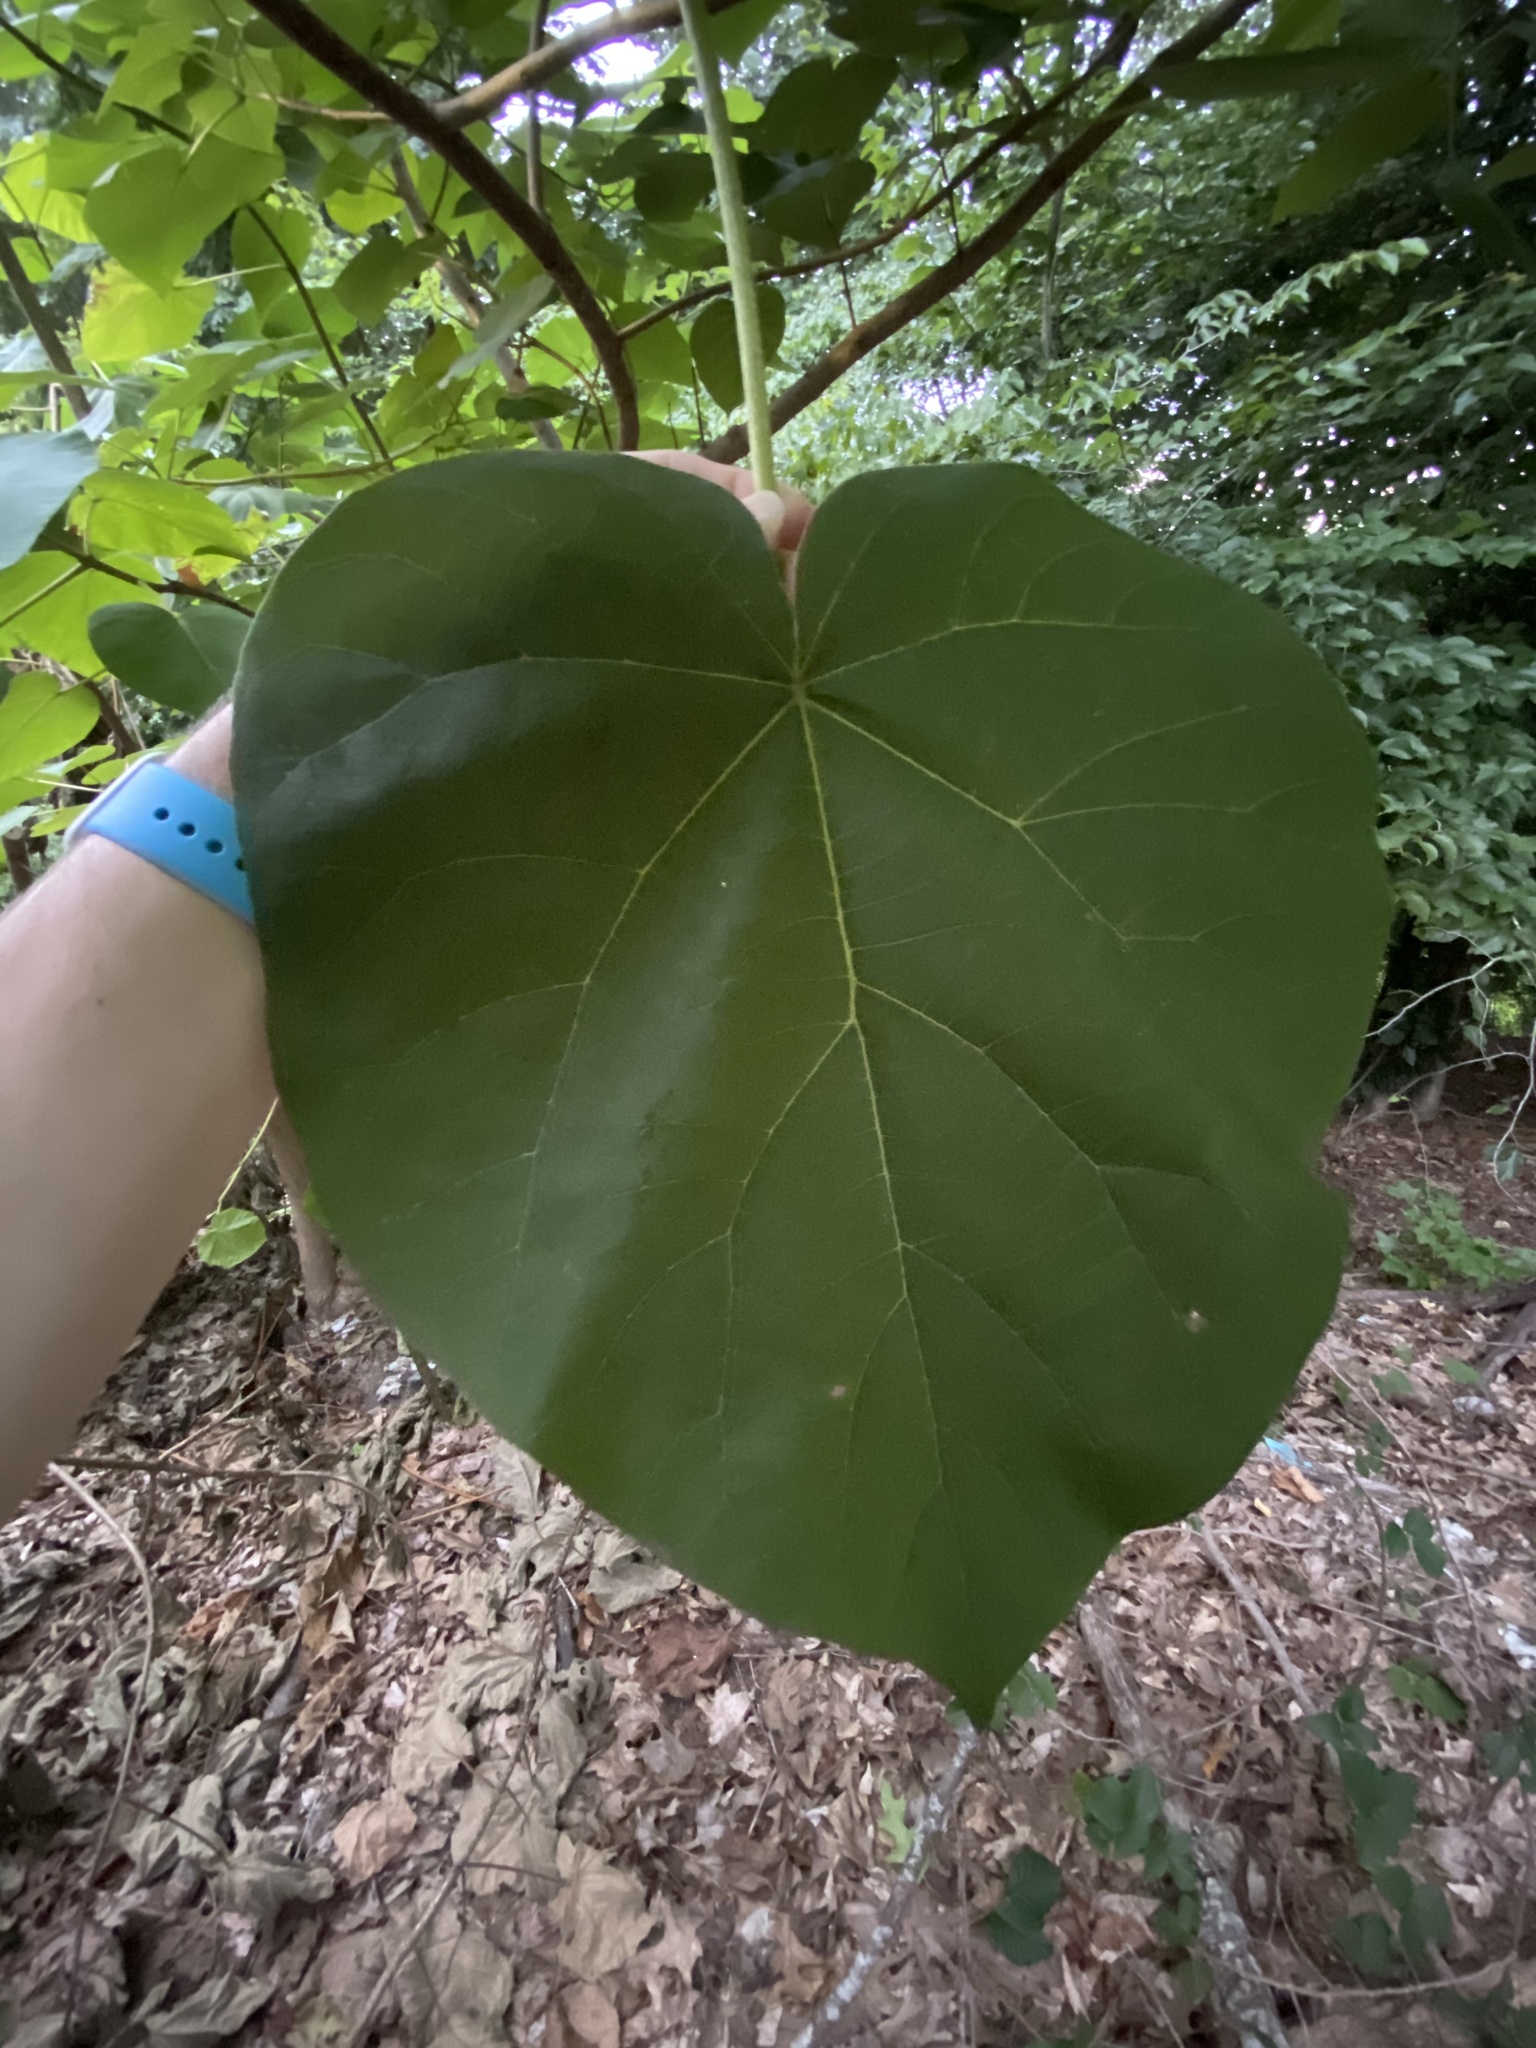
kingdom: Plantae
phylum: Tracheophyta
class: Magnoliopsida
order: Lamiales
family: Paulowniaceae
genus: Paulownia
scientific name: Paulownia tomentosa
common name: Foxglove-tree
